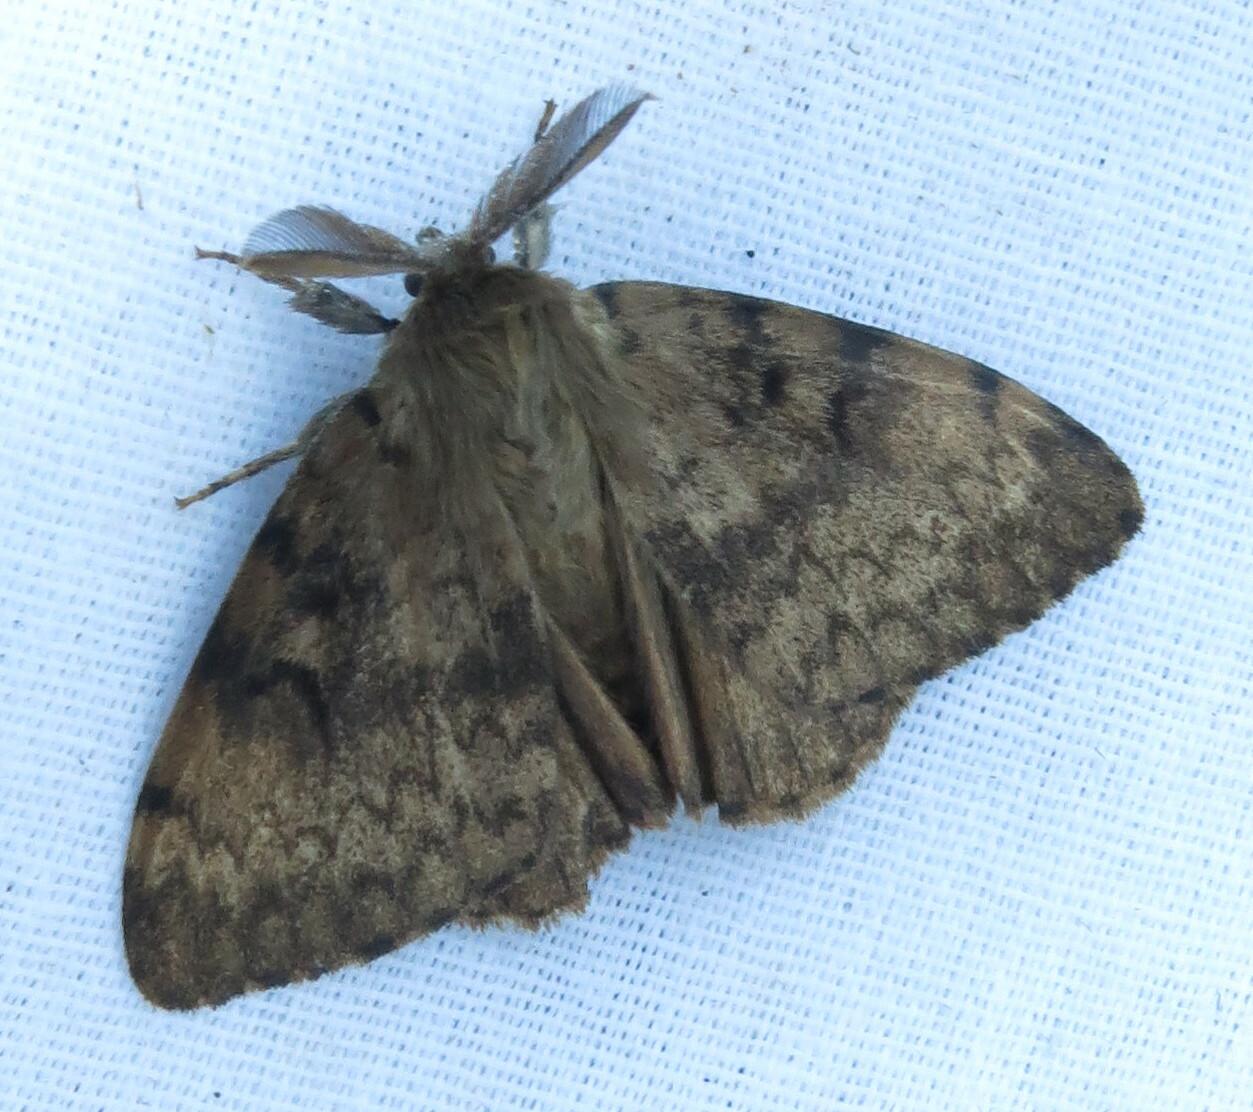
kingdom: Animalia
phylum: Arthropoda
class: Insecta
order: Lepidoptera
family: Erebidae
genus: Lymantria
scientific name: Lymantria dispar
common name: Gypsy moth
